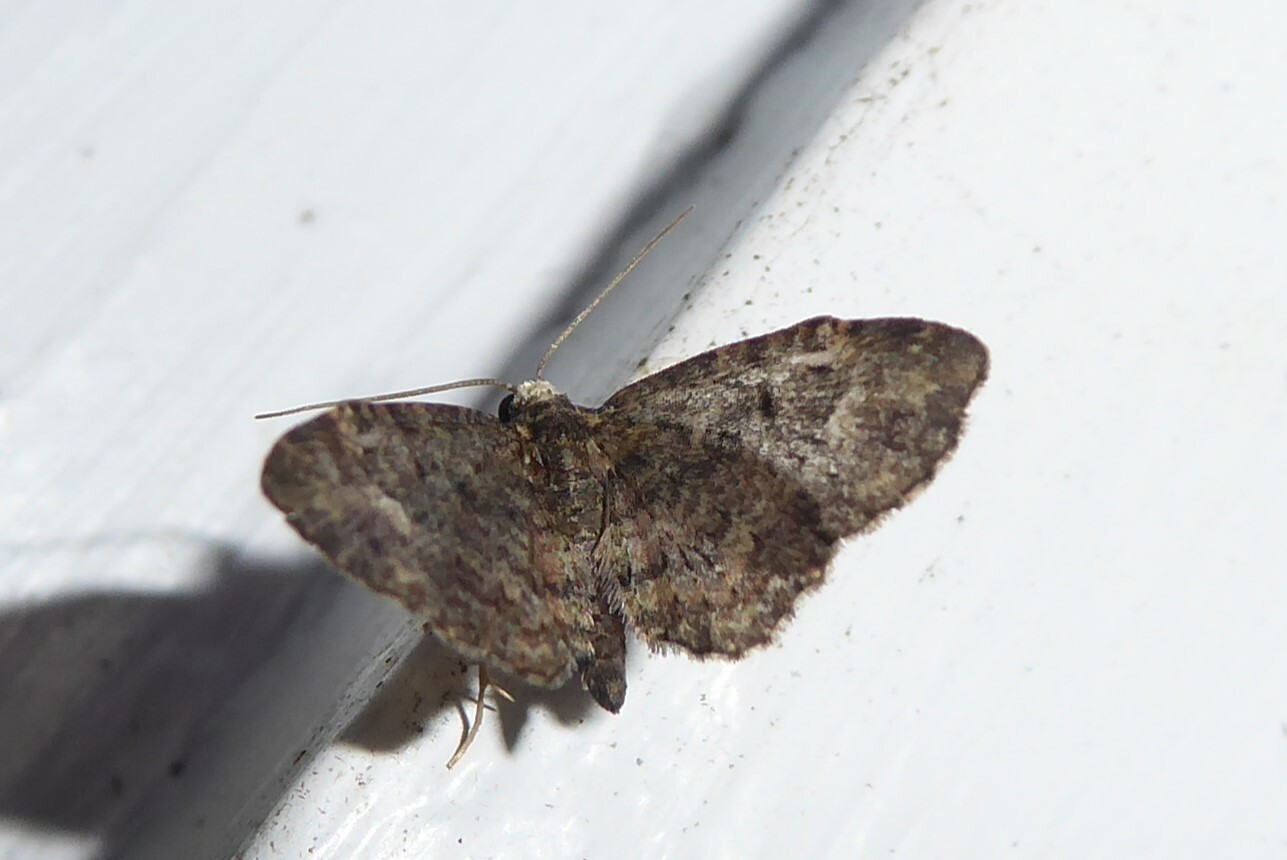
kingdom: Animalia
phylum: Arthropoda
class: Insecta
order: Lepidoptera
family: Geometridae
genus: Pasiphilodes
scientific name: Pasiphilodes testulata
